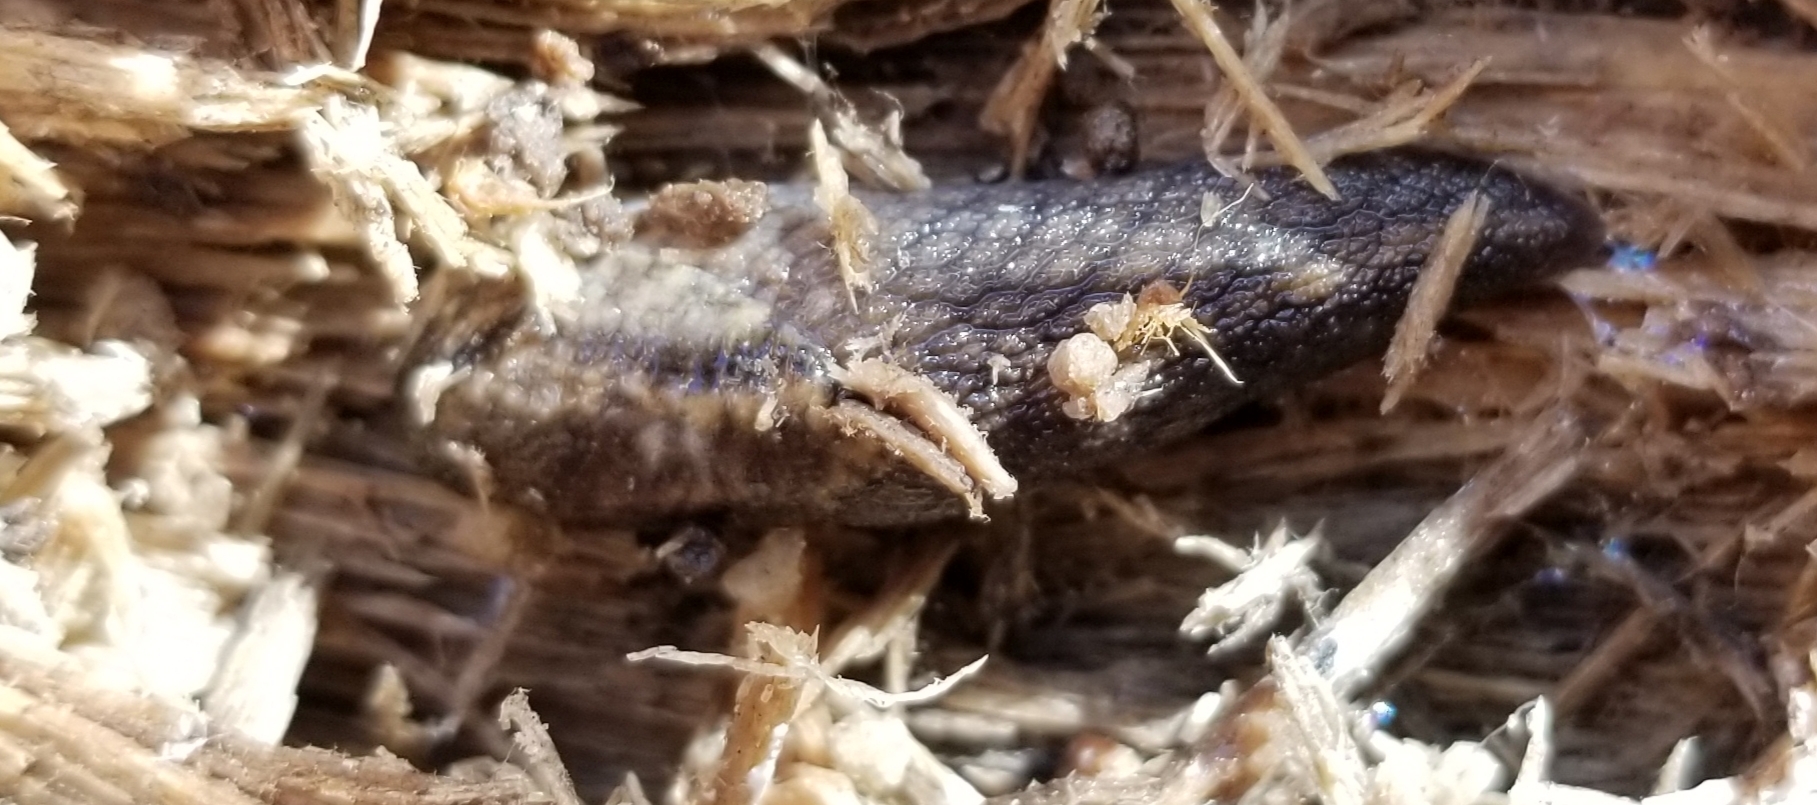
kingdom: Animalia
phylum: Mollusca
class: Gastropoda
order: Stylommatophora
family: Ariolimacidae
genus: Prophysaon
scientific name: Prophysaon andersonii
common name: Reticulate taildropper
